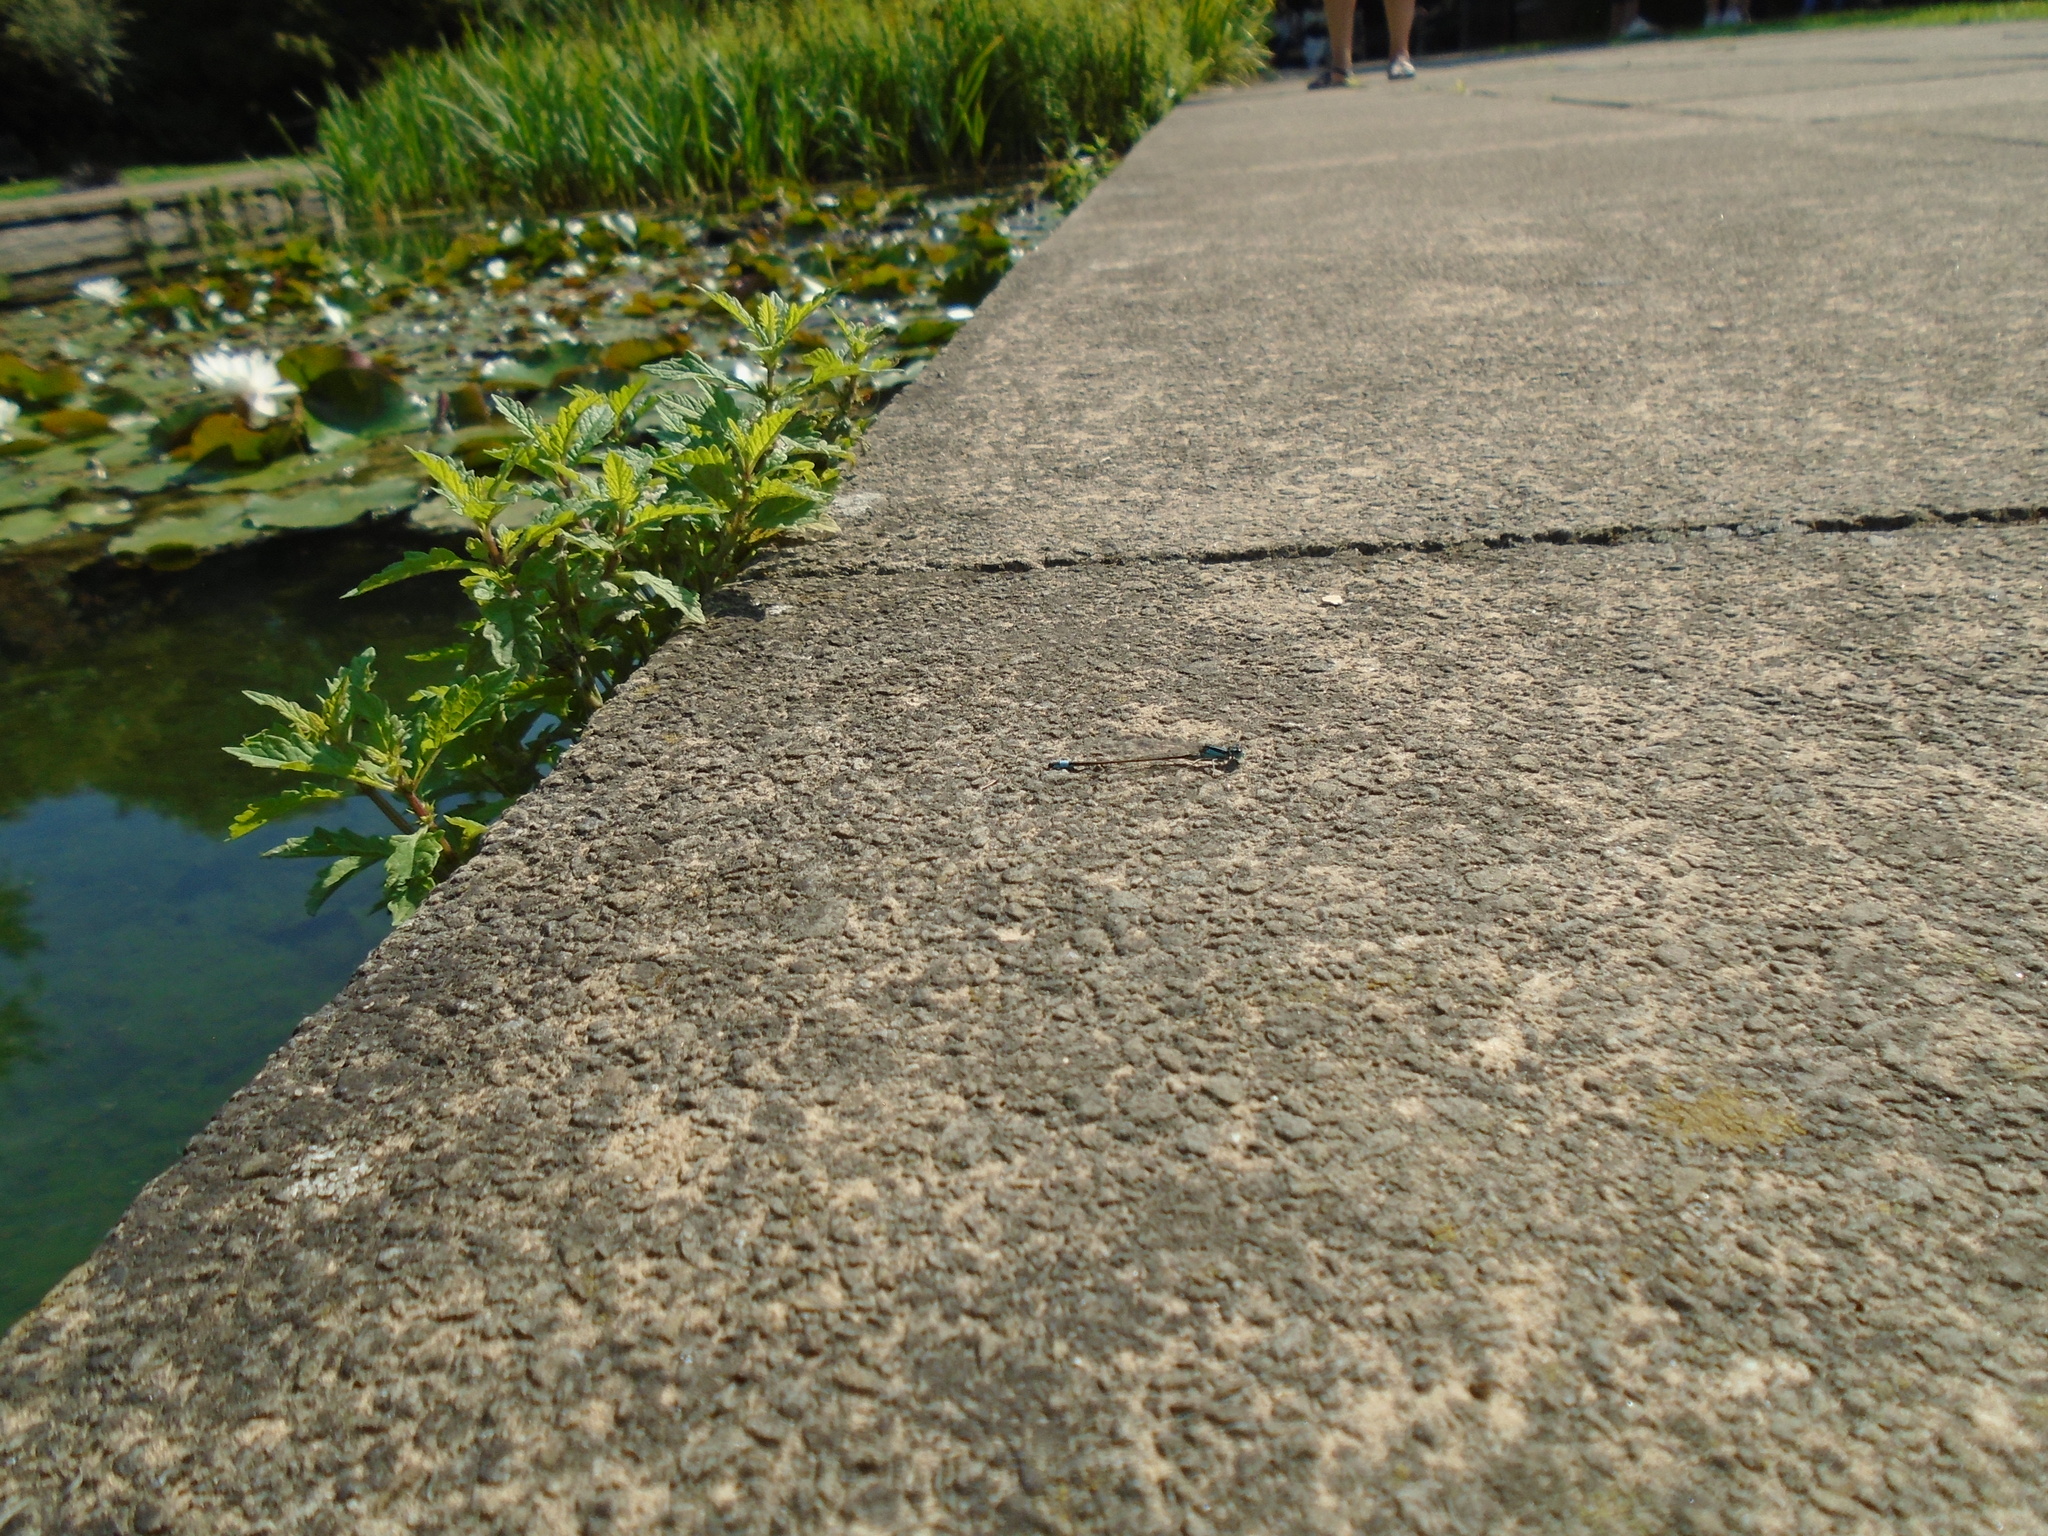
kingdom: Animalia
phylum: Arthropoda
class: Insecta
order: Odonata
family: Coenagrionidae
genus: Ischnura
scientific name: Ischnura elegans
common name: Blue-tailed damselfly
